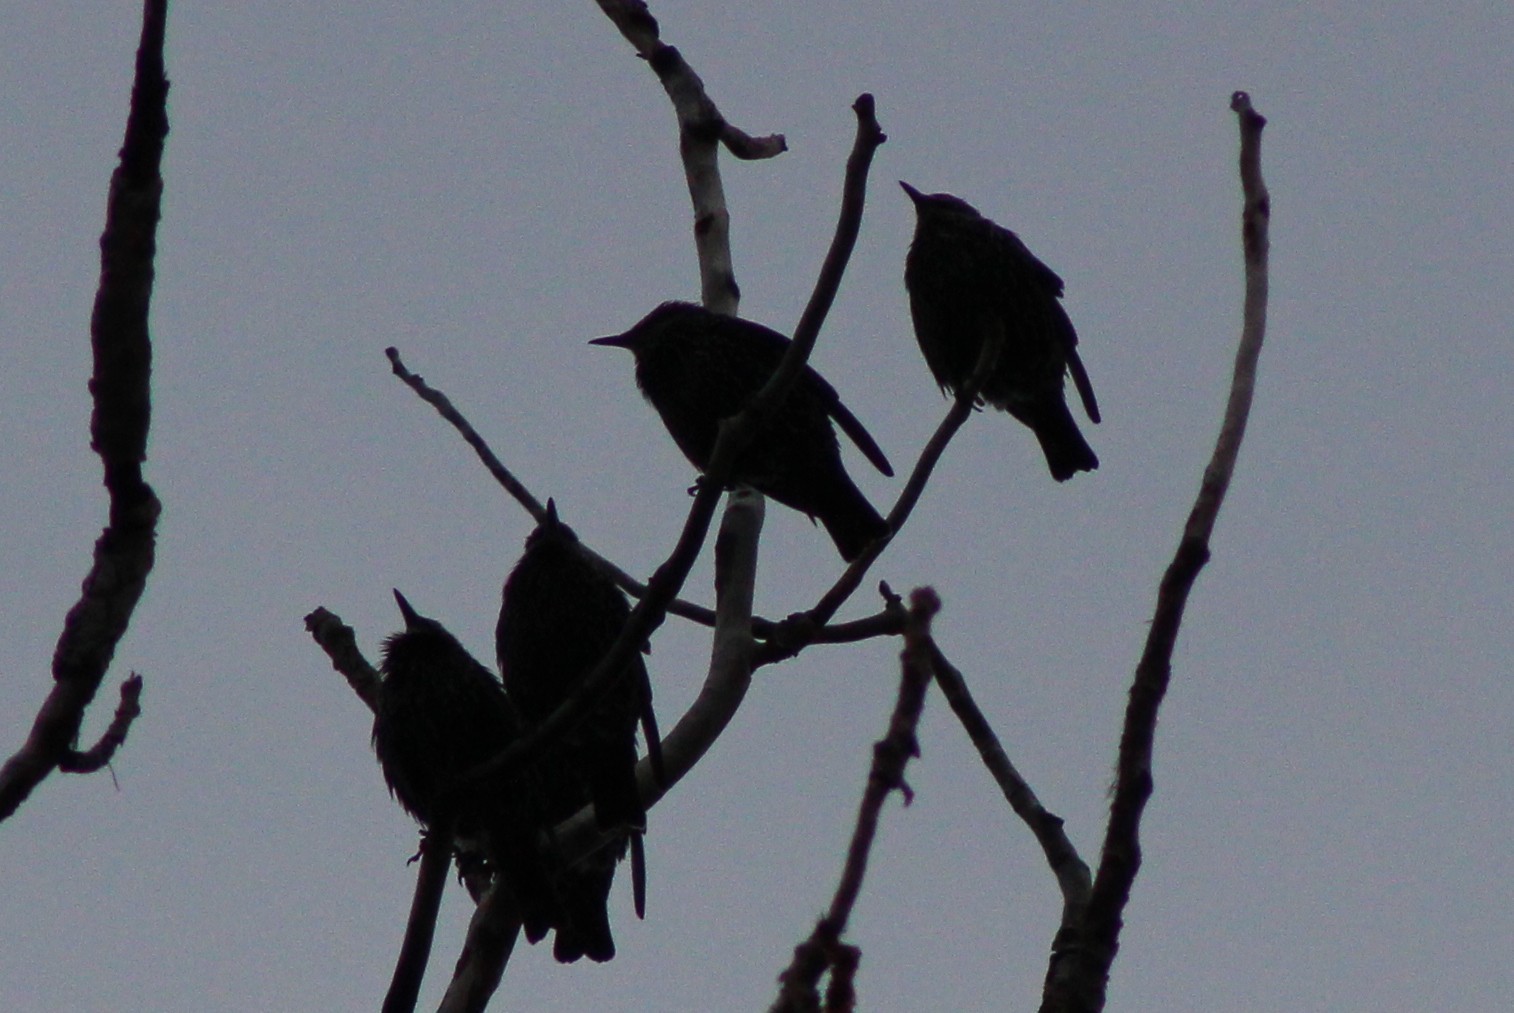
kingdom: Animalia
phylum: Chordata
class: Aves
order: Passeriformes
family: Sturnidae
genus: Sturnus
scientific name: Sturnus vulgaris
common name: Common starling
